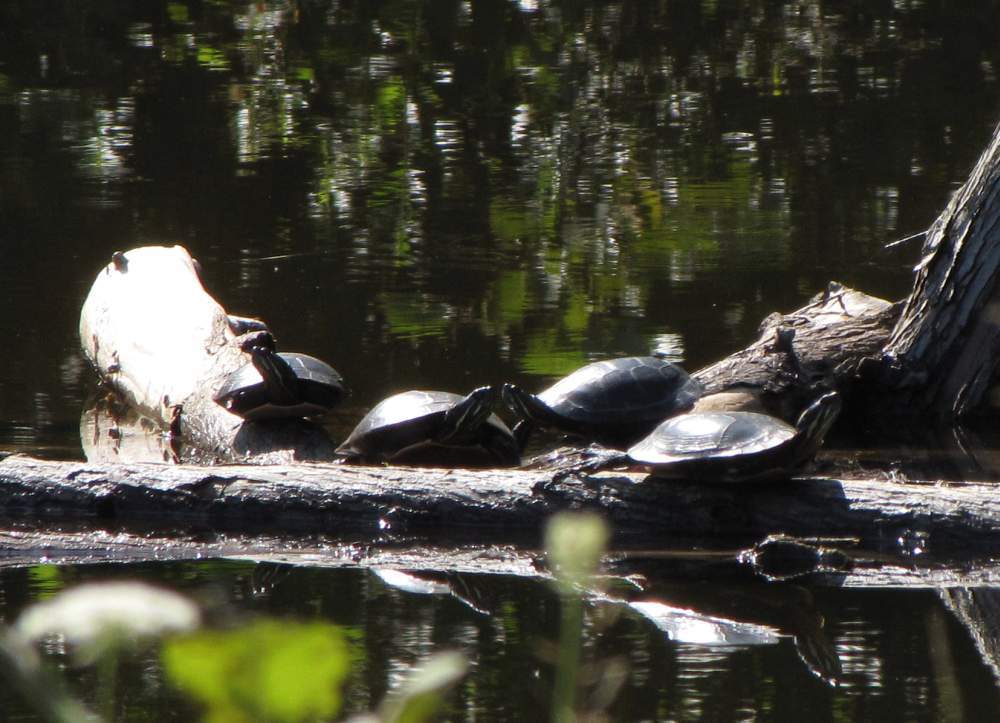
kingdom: Animalia
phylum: Chordata
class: Testudines
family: Emydidae
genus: Chrysemys
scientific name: Chrysemys picta
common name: Painted turtle
